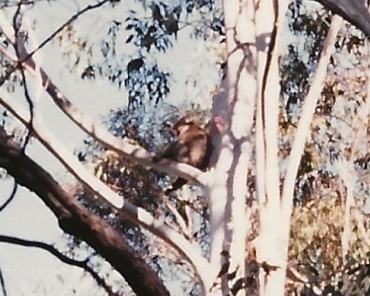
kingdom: Animalia
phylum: Chordata
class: Mammalia
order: Diprotodontia
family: Phascolarctidae
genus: Phascolarctos
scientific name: Phascolarctos cinereus
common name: Koala
